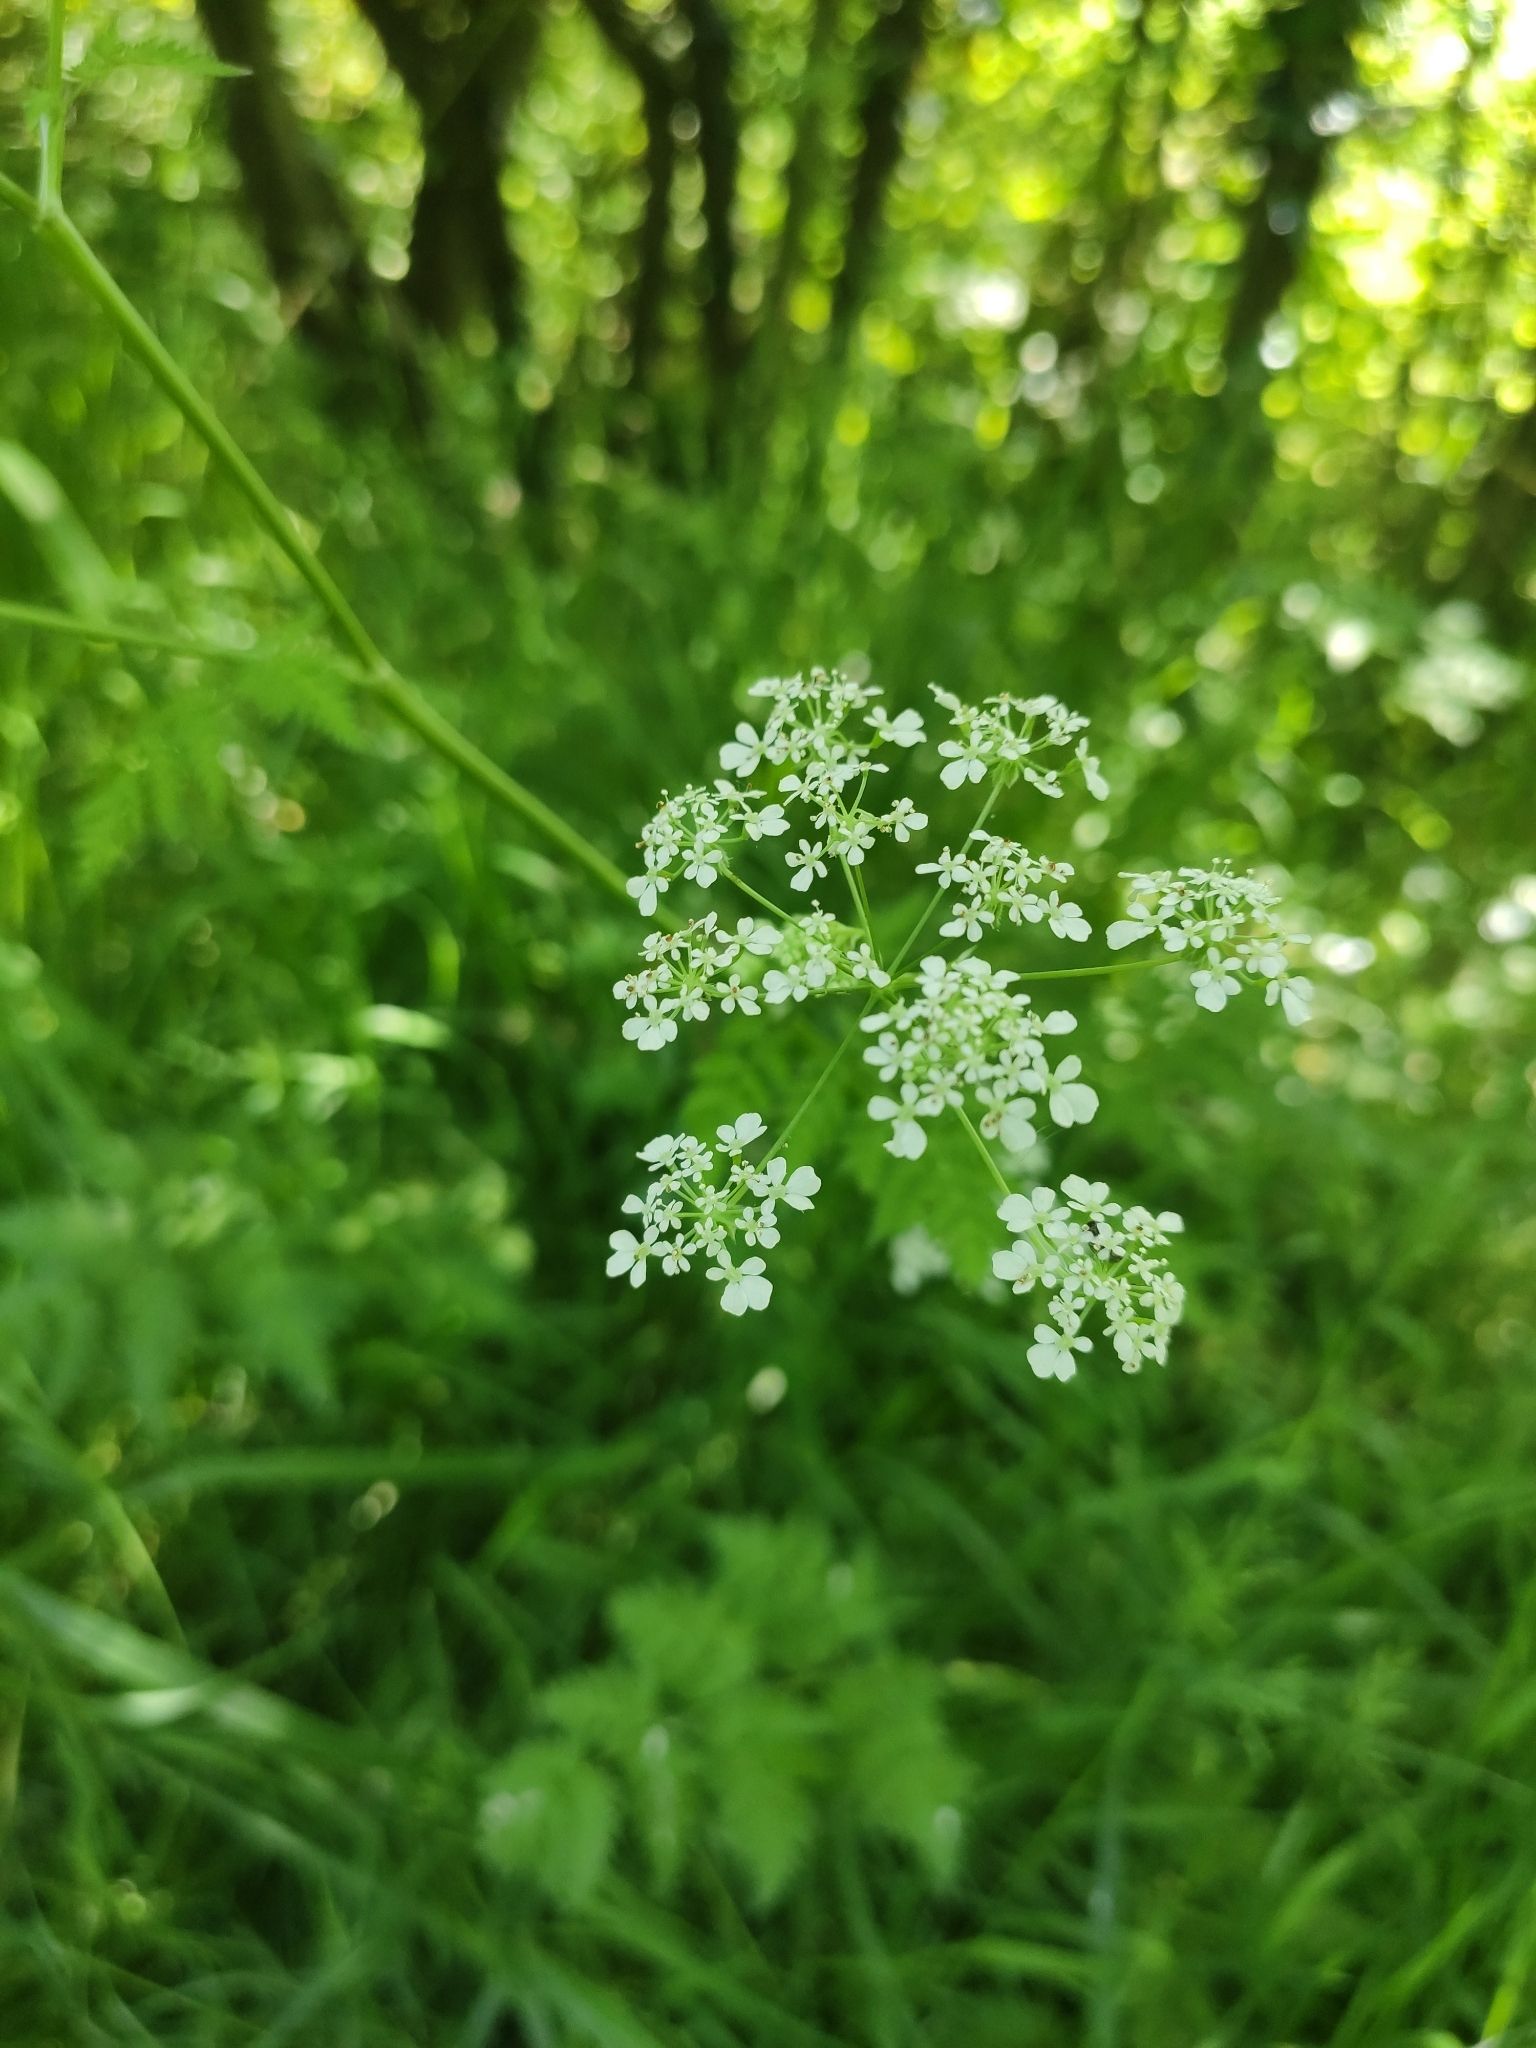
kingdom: Plantae
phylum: Tracheophyta
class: Magnoliopsida
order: Apiales
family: Apiaceae
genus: Anthriscus
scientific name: Anthriscus sylvestris
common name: Cow parsley
